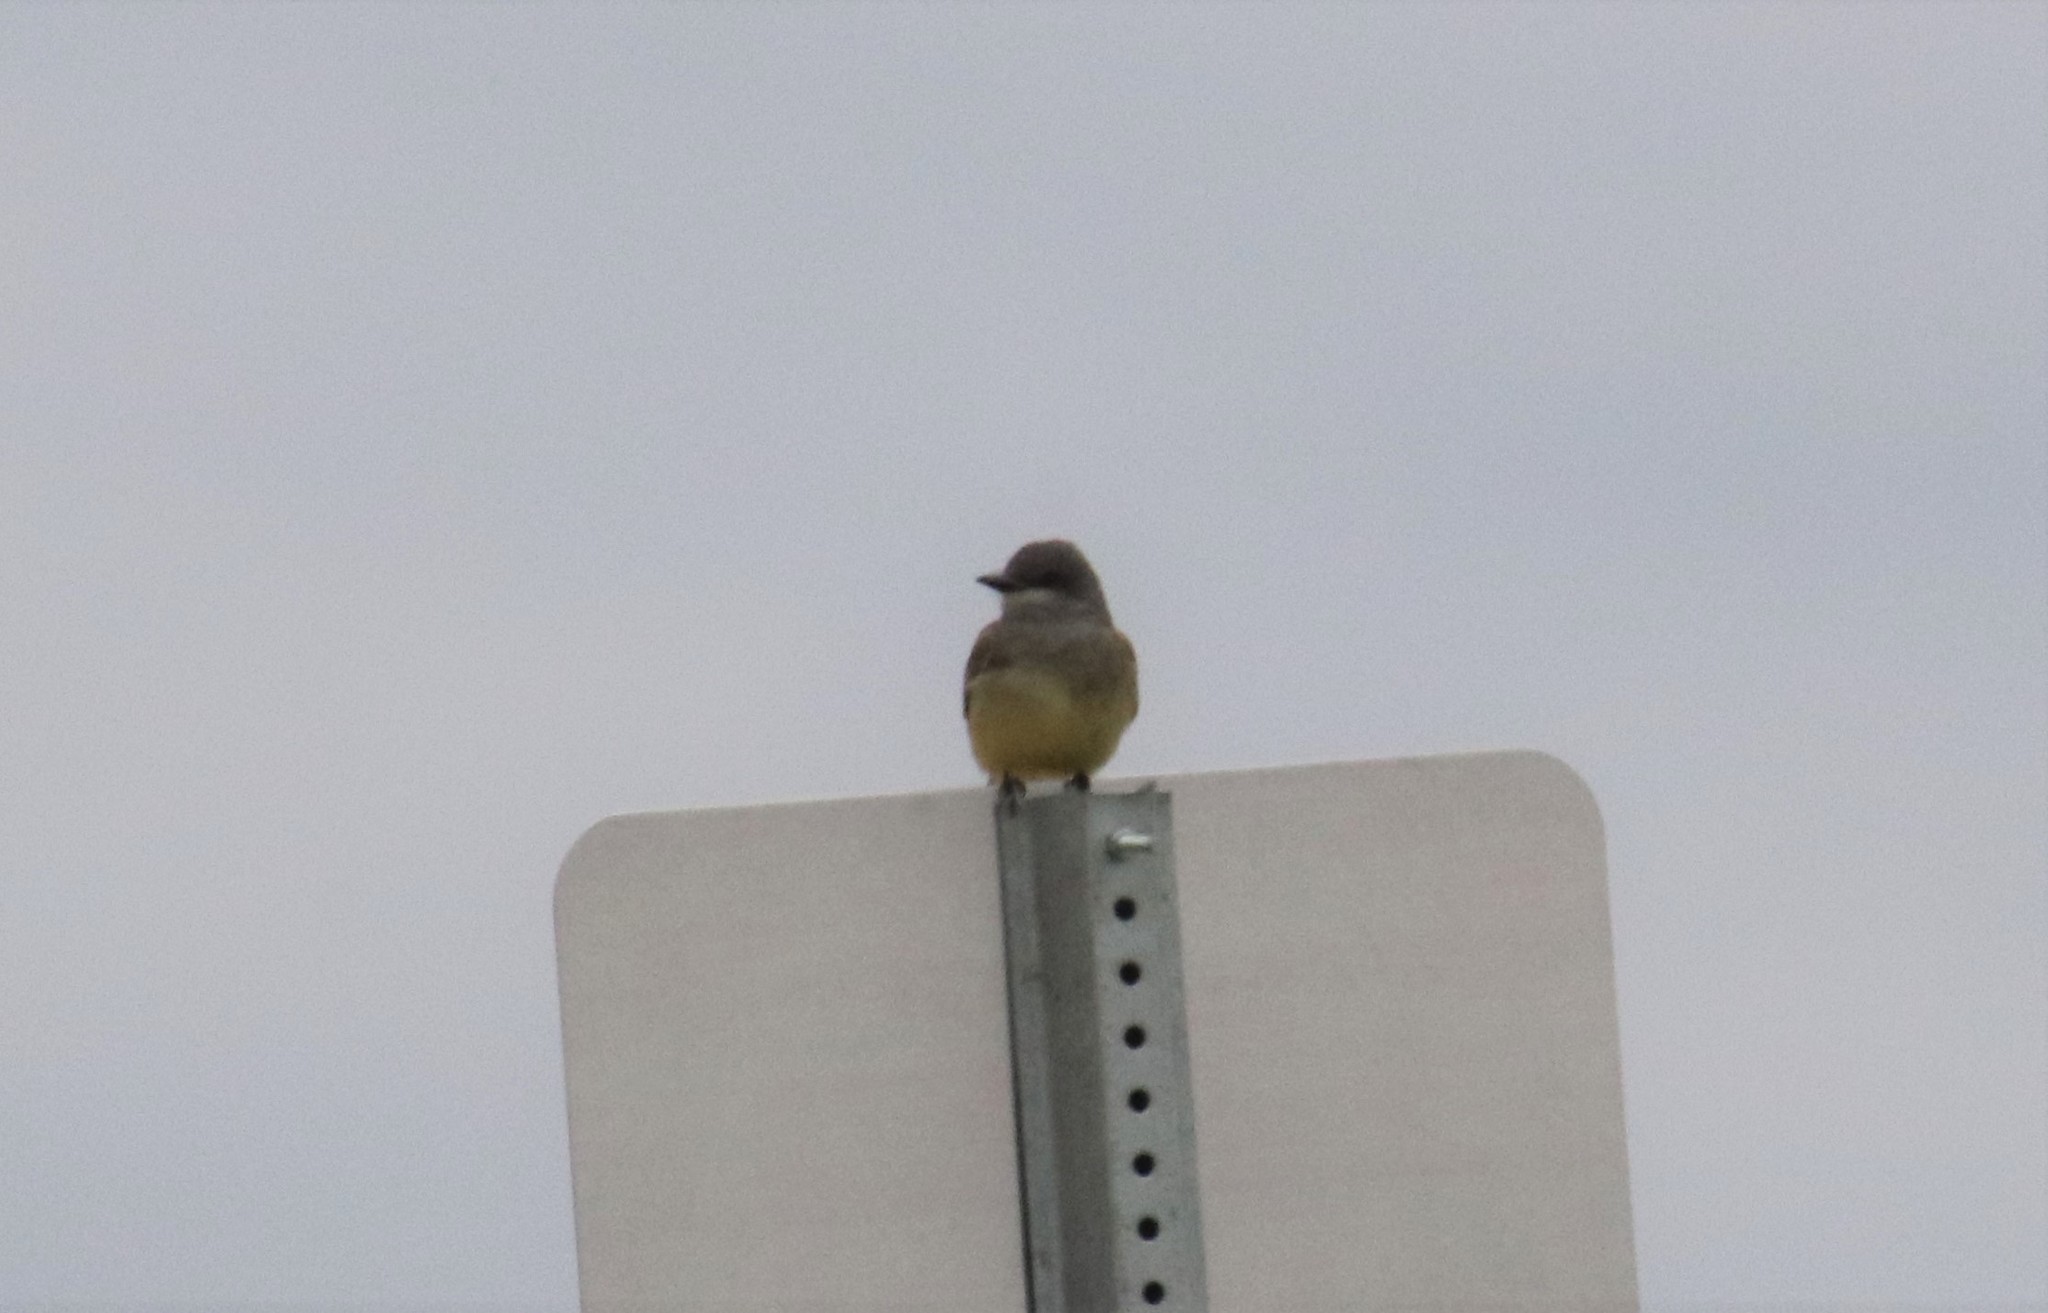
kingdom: Animalia
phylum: Chordata
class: Aves
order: Passeriformes
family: Tyrannidae
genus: Tyrannus
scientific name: Tyrannus vociferans
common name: Cassin's kingbird
